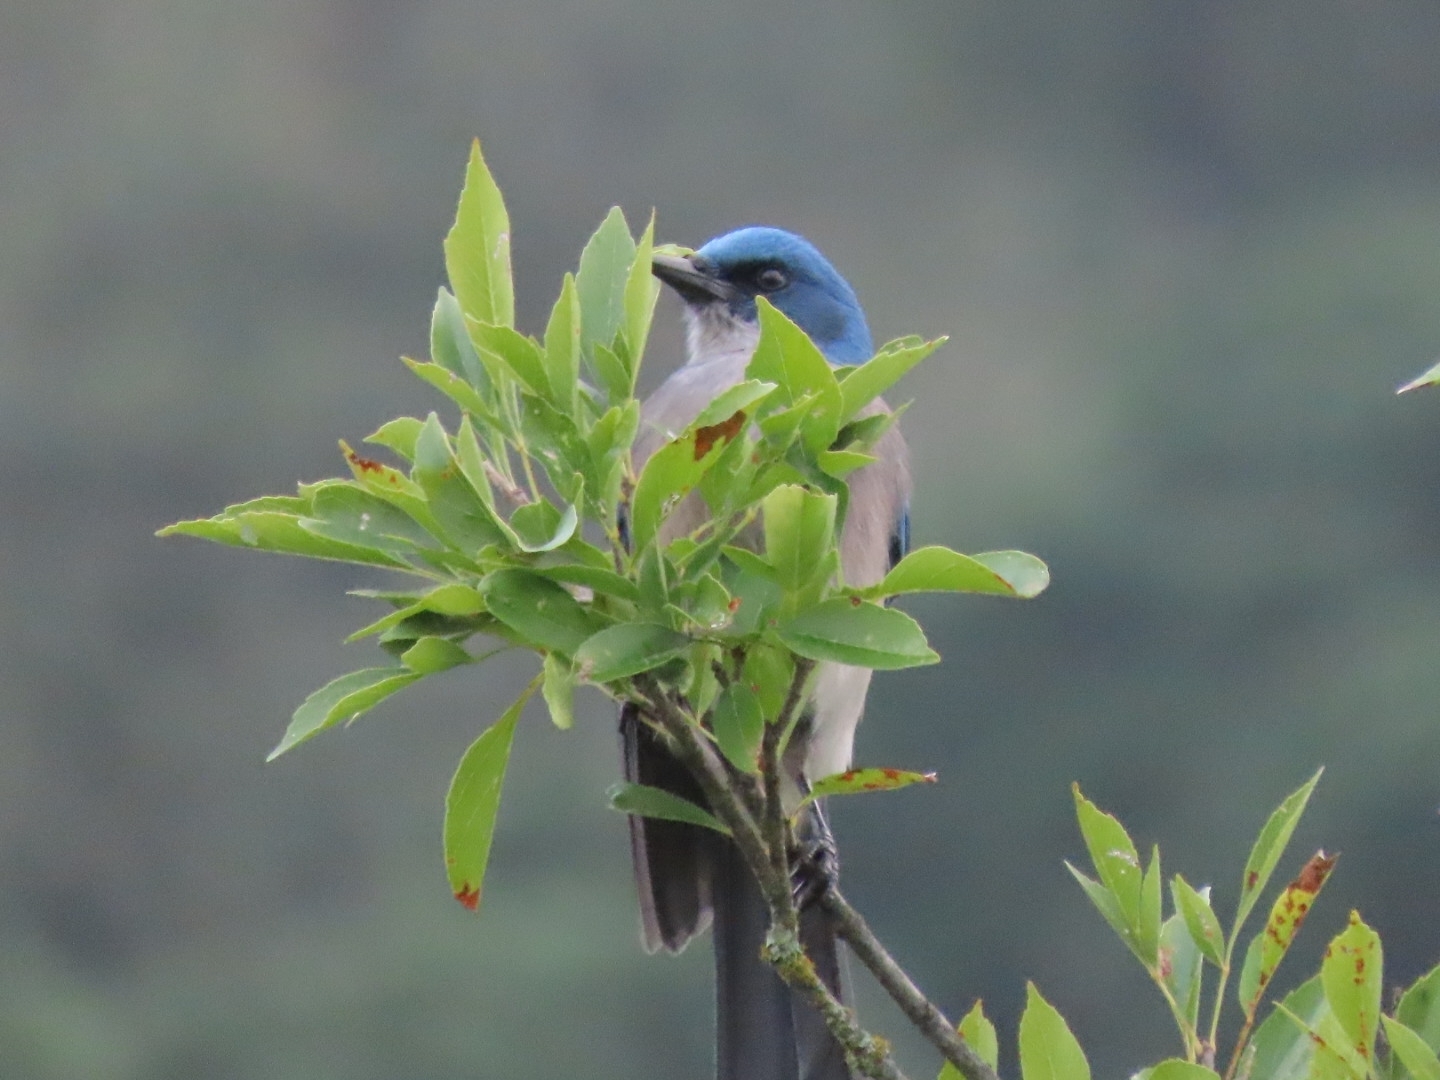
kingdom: Animalia
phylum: Chordata
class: Aves
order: Passeriformes
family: Corvidae
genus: Aphelocoma
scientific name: Aphelocoma wollweberi
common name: Mexican jay
